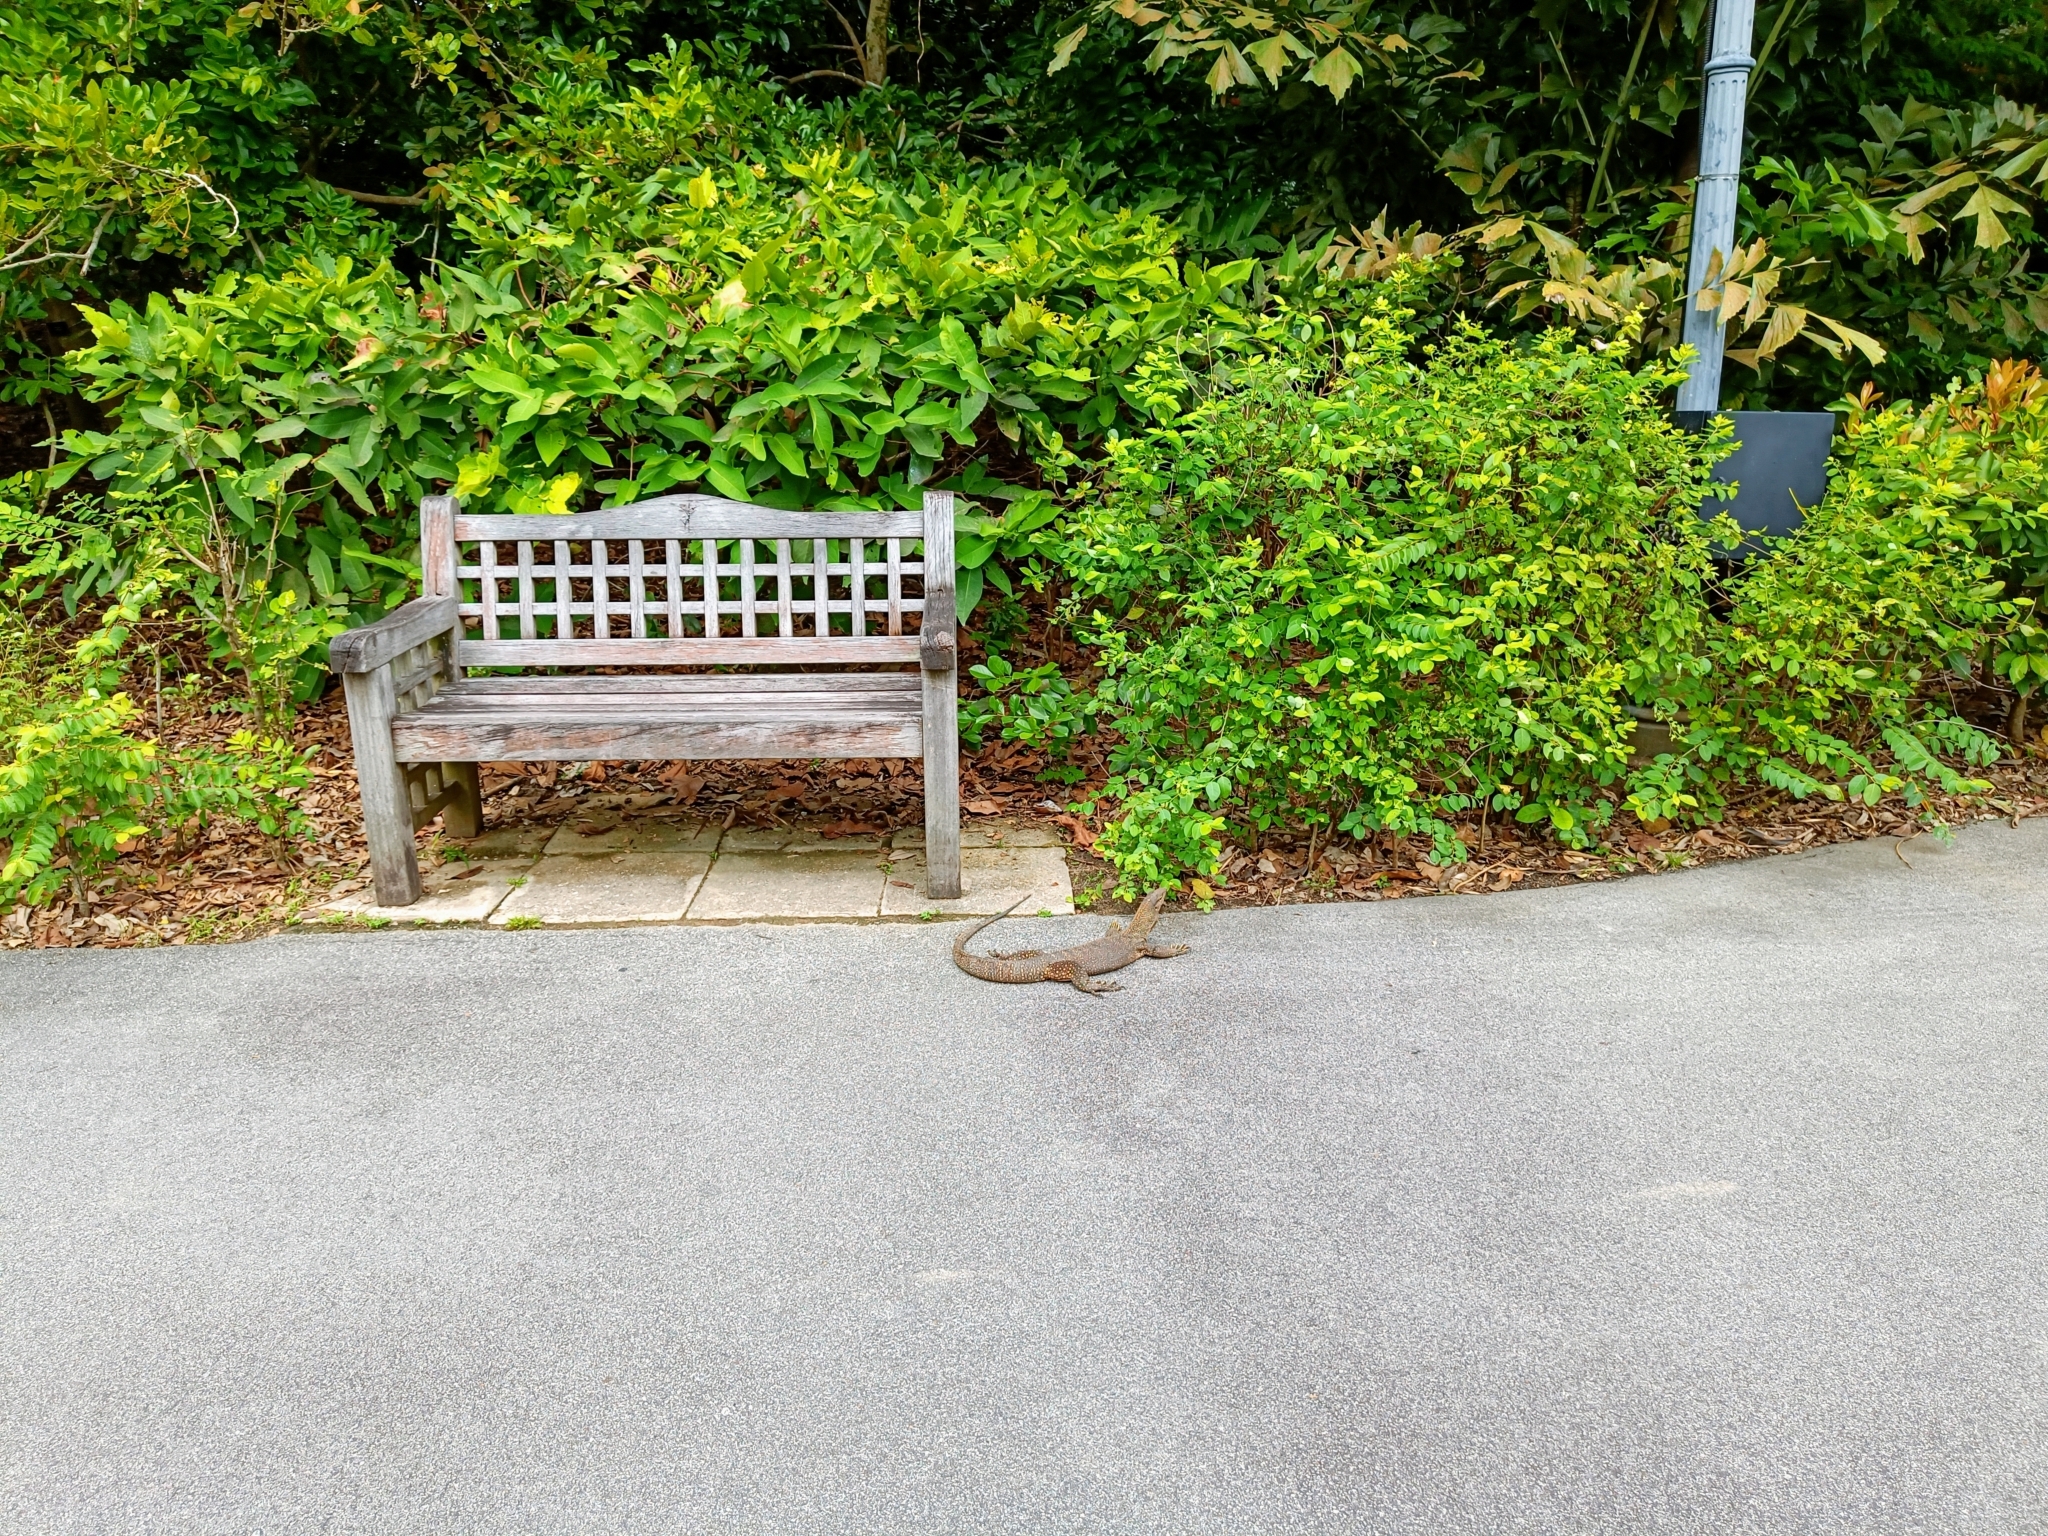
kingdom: Animalia
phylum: Chordata
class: Squamata
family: Varanidae
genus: Varanus
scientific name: Varanus nebulosus
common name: Clouded monitor
